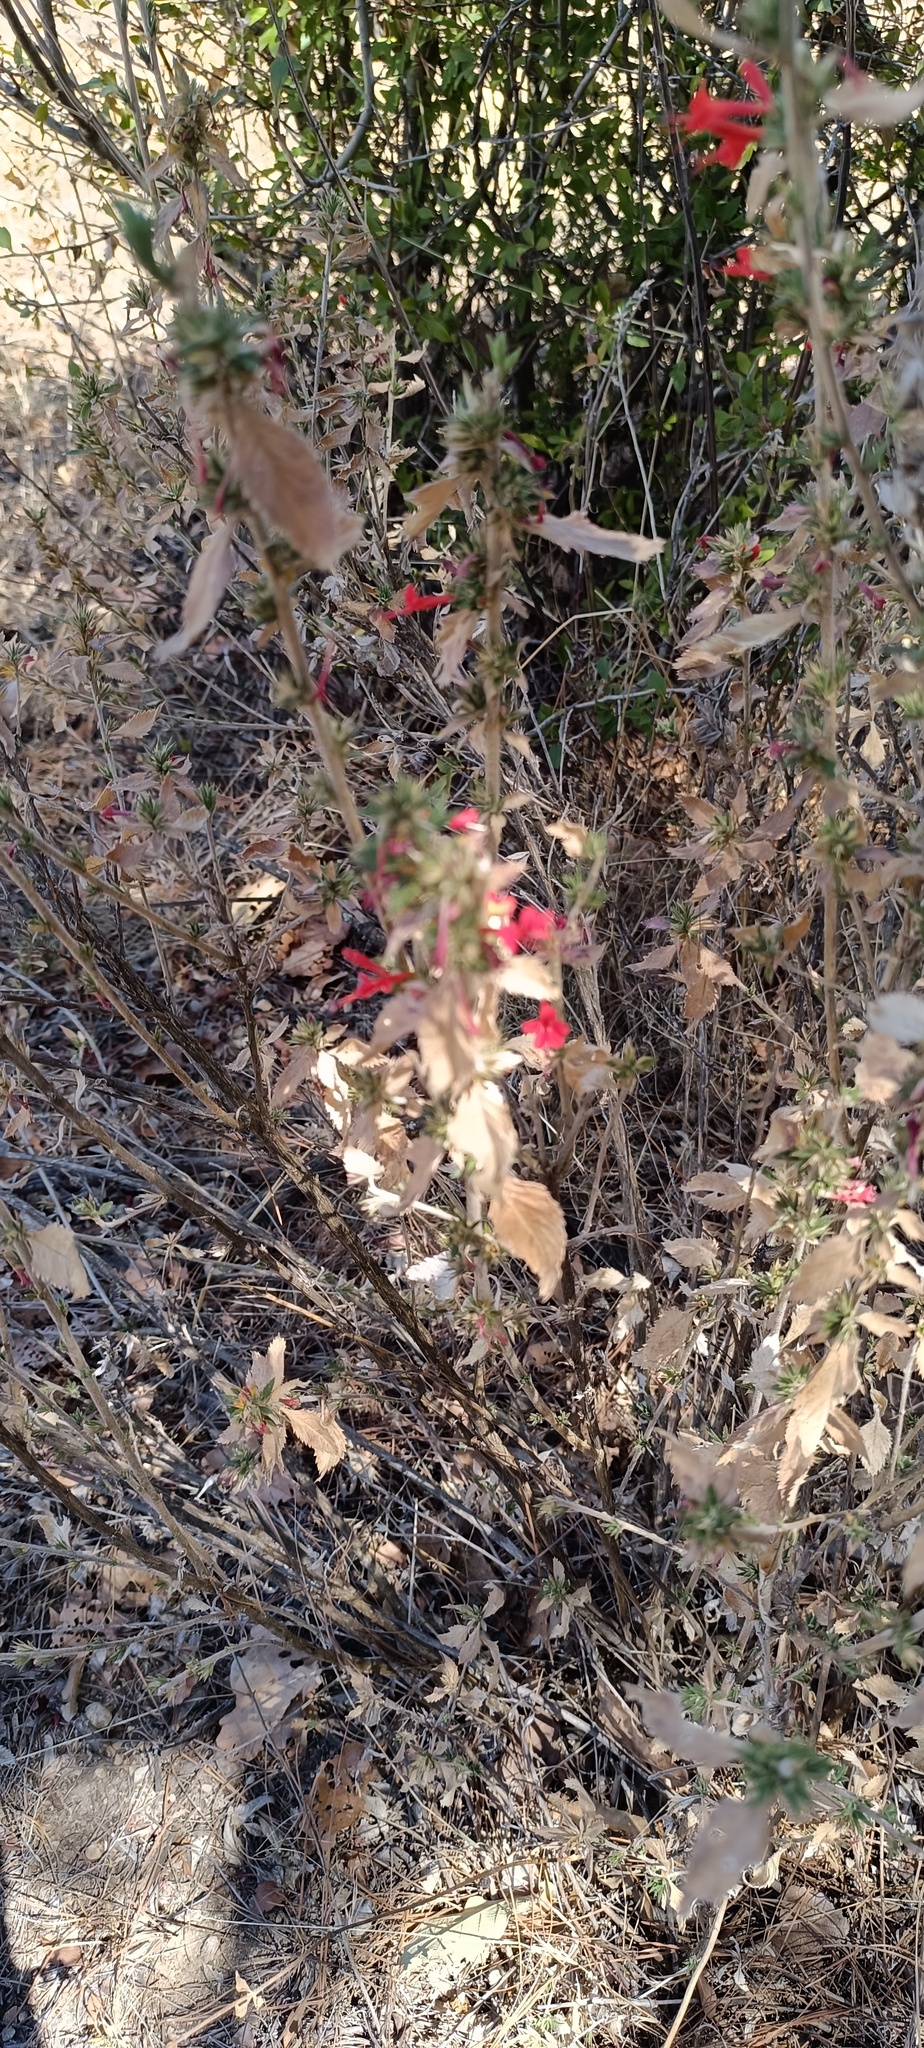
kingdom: Plantae
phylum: Tracheophyta
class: Magnoliopsida
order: Ericales
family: Polemoniaceae
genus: Loeselia
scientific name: Loeselia mexicana
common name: Mexican false calico
